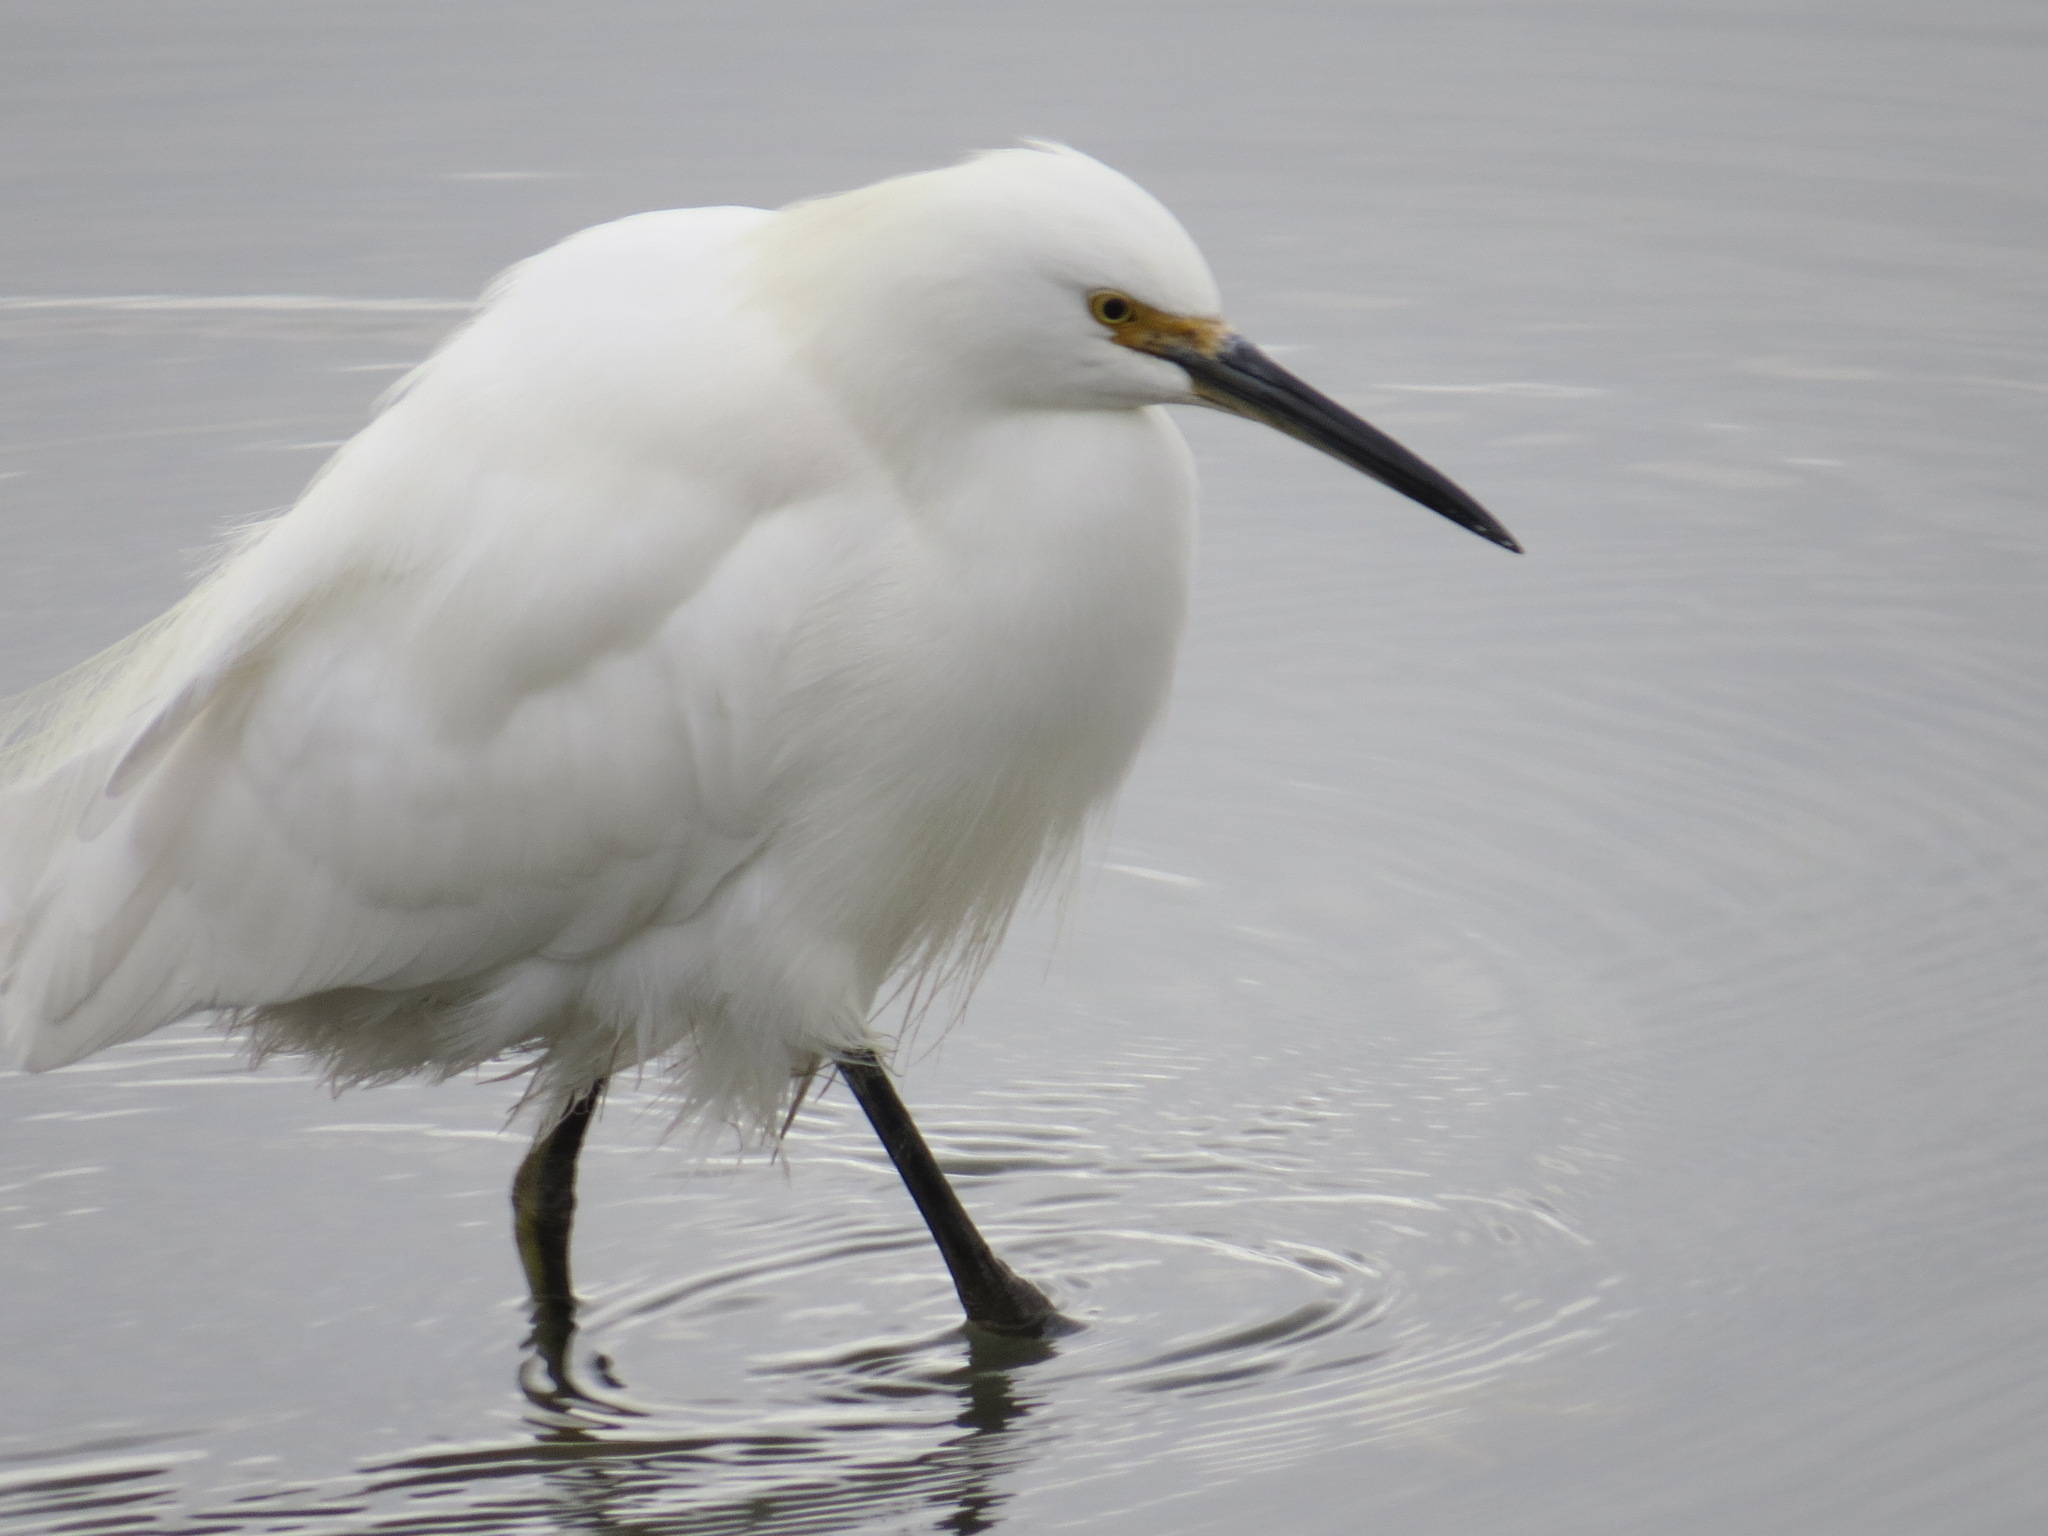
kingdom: Animalia
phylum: Chordata
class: Aves
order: Pelecaniformes
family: Ardeidae
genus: Egretta
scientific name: Egretta thula
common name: Snowy egret
